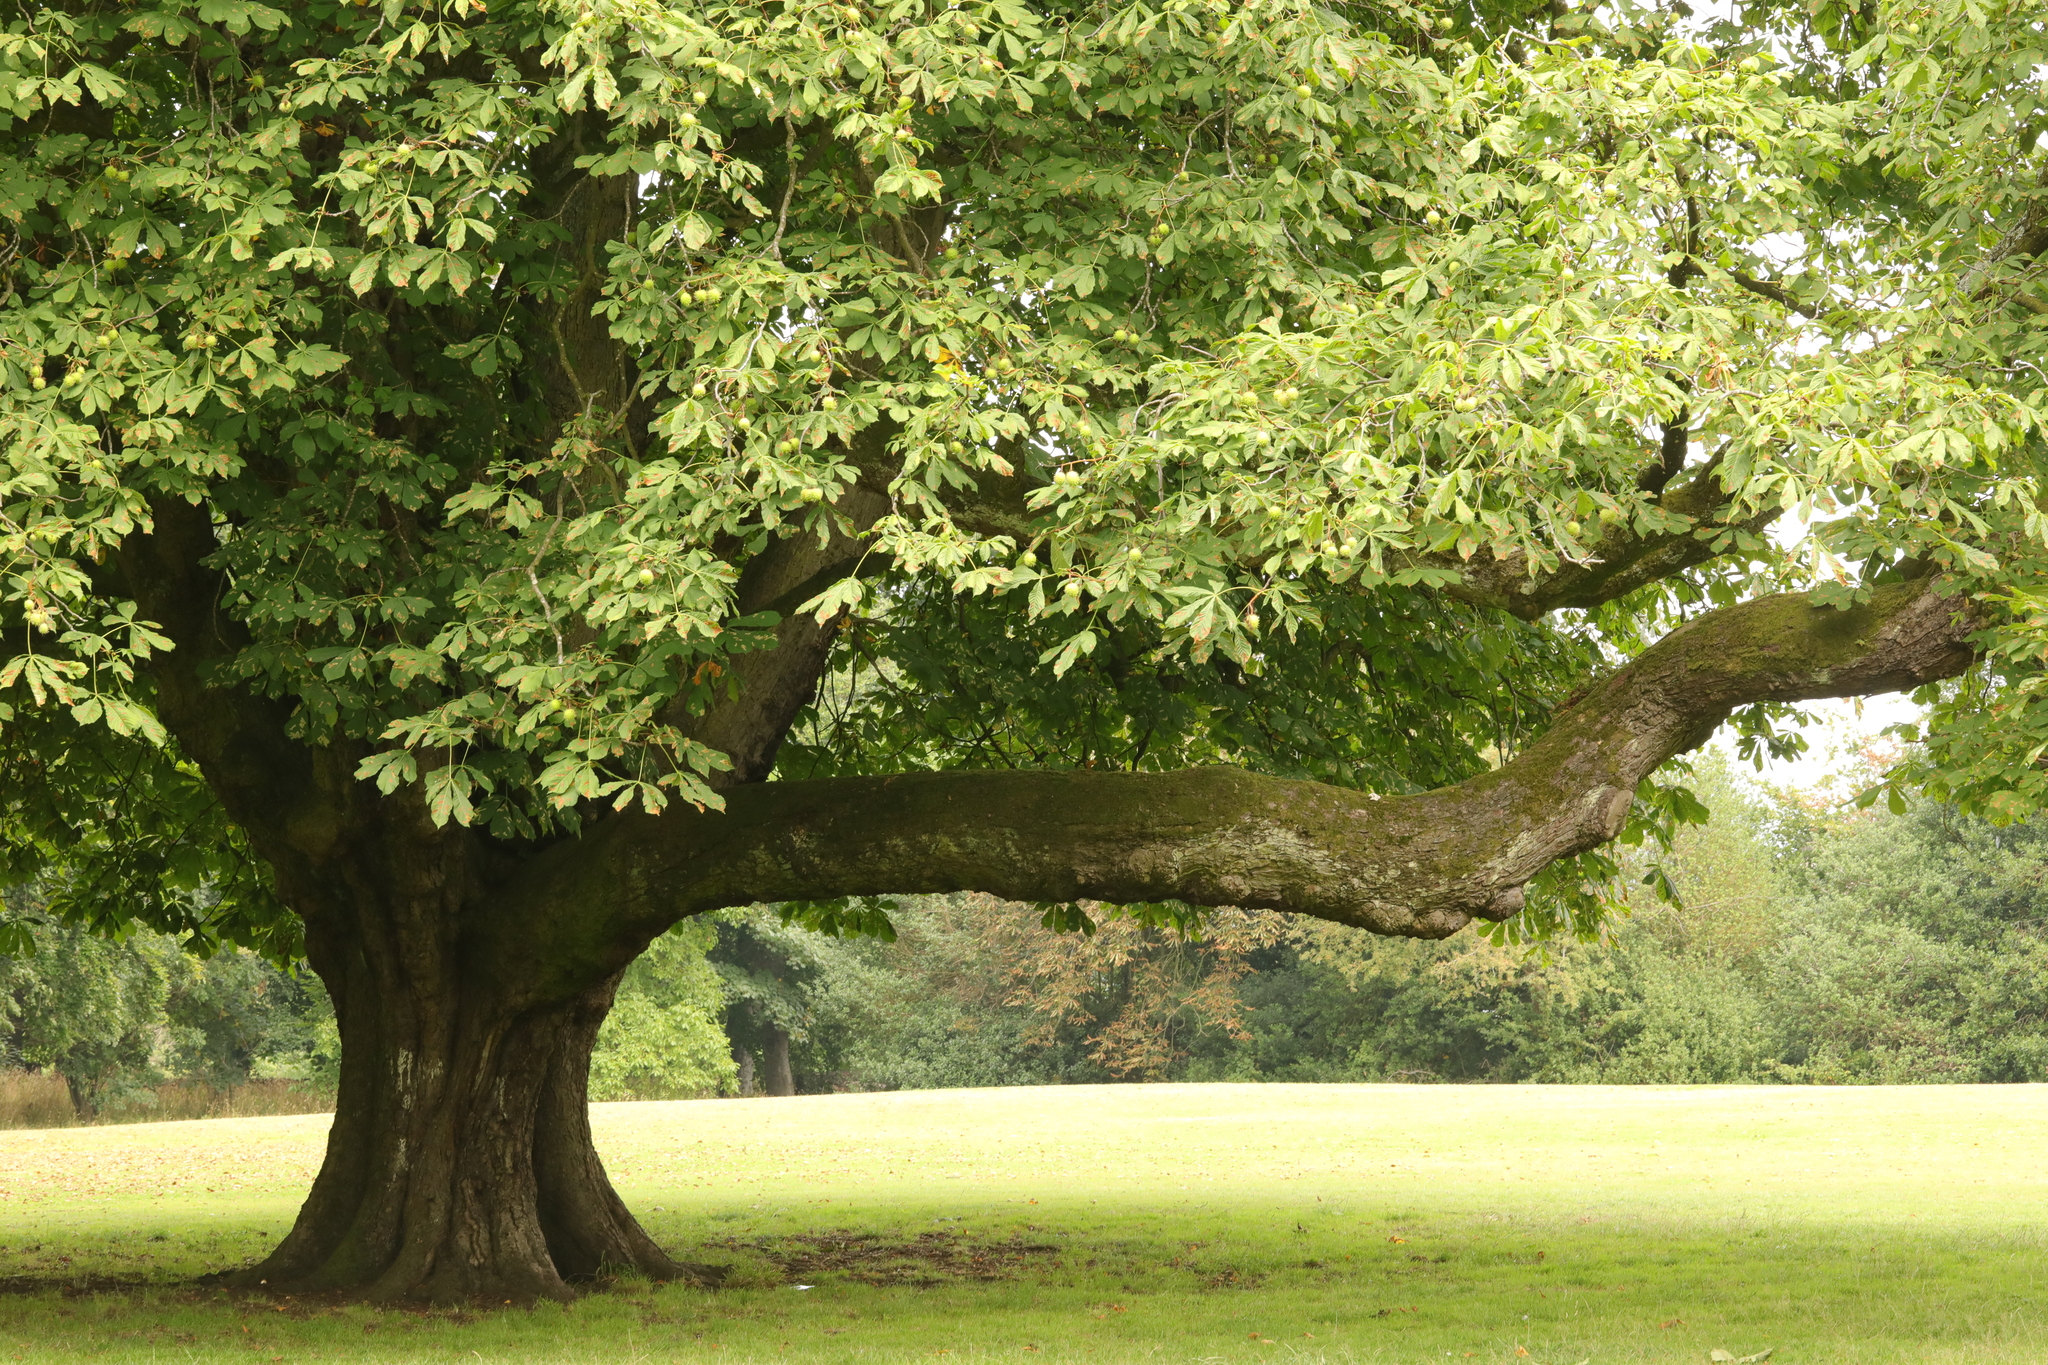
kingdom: Plantae
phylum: Tracheophyta
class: Magnoliopsida
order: Sapindales
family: Sapindaceae
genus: Aesculus
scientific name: Aesculus hippocastanum
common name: Horse-chestnut
